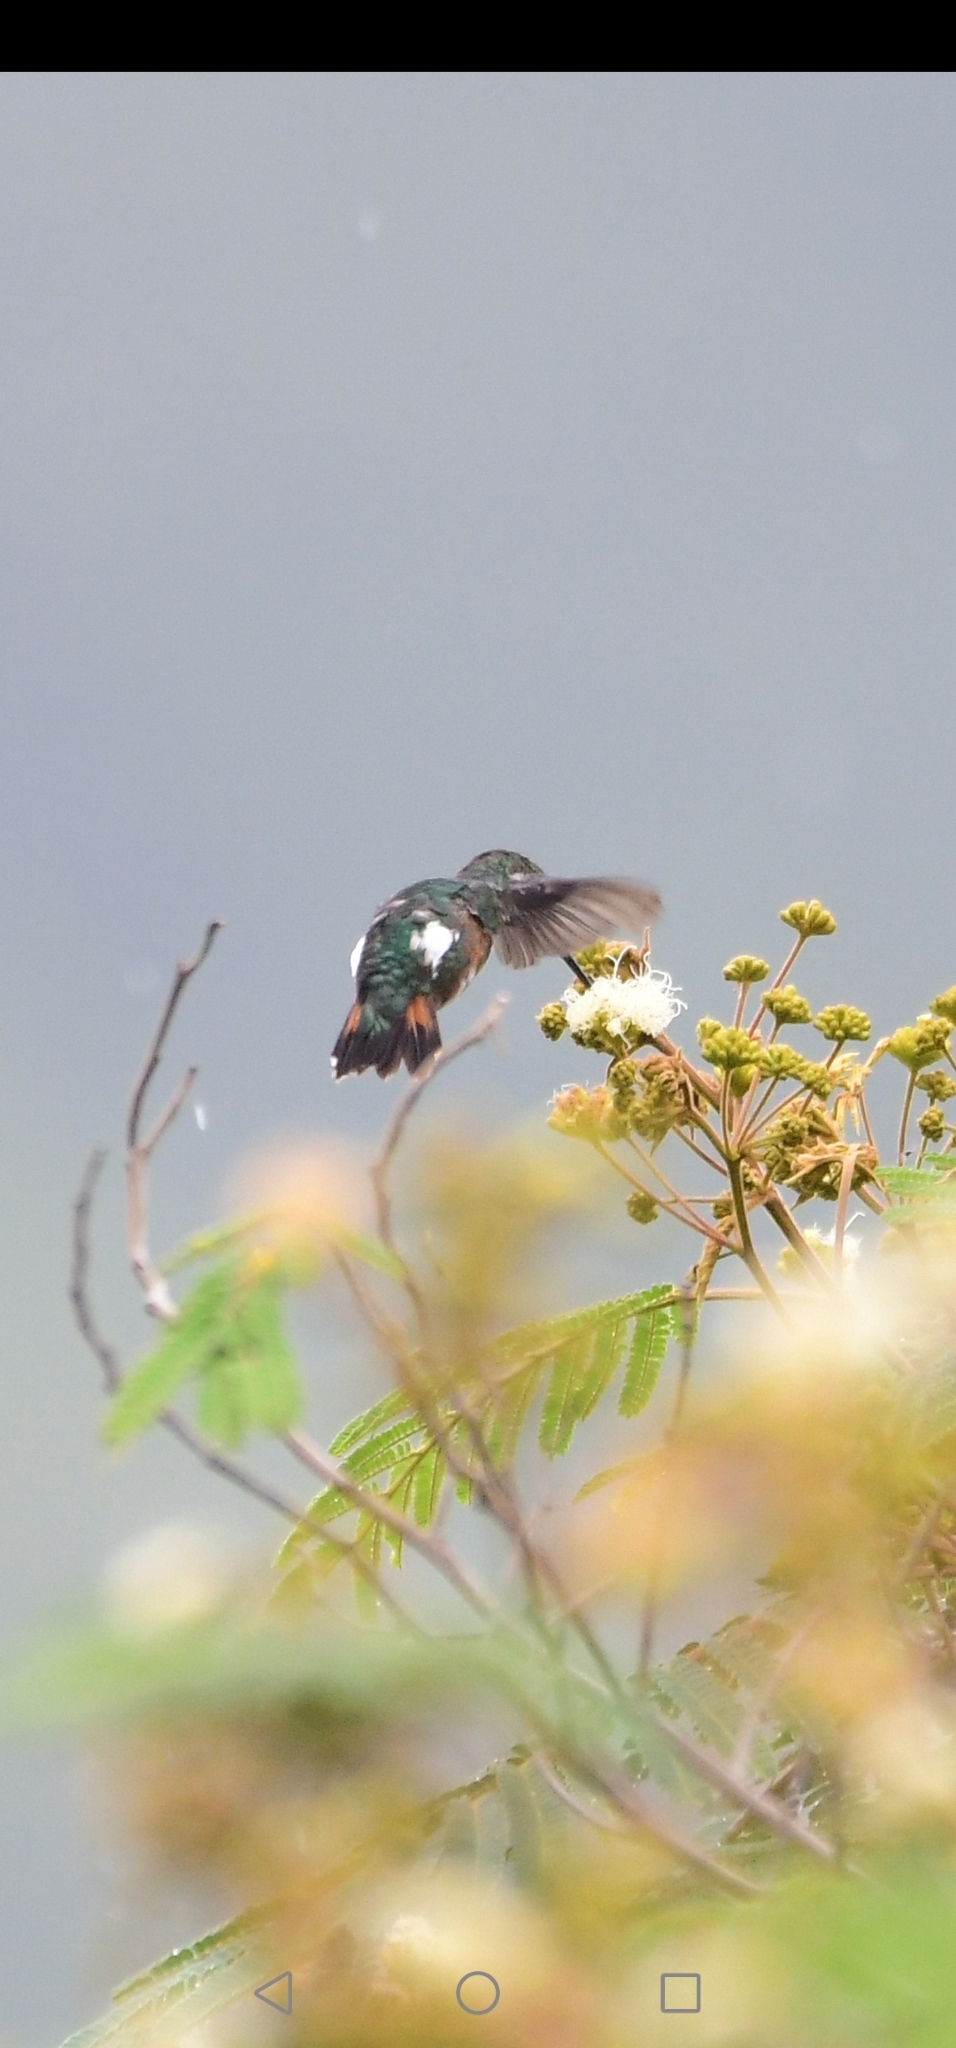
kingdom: Animalia
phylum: Chordata
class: Aves
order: Apodiformes
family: Trochilidae
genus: Chaetocercus
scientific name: Chaetocercus mulsant
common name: White-bellied woodstar
